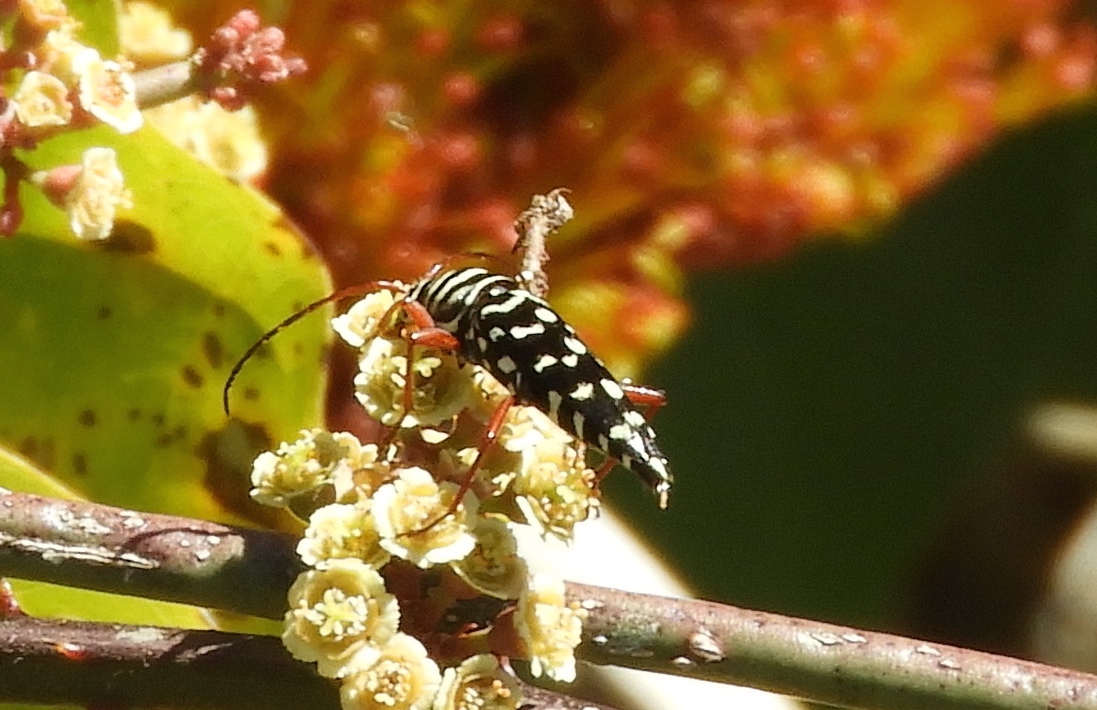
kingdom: Animalia
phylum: Arthropoda
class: Insecta
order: Coleoptera
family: Cerambycidae
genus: Placosternus
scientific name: Placosternus difficilis
